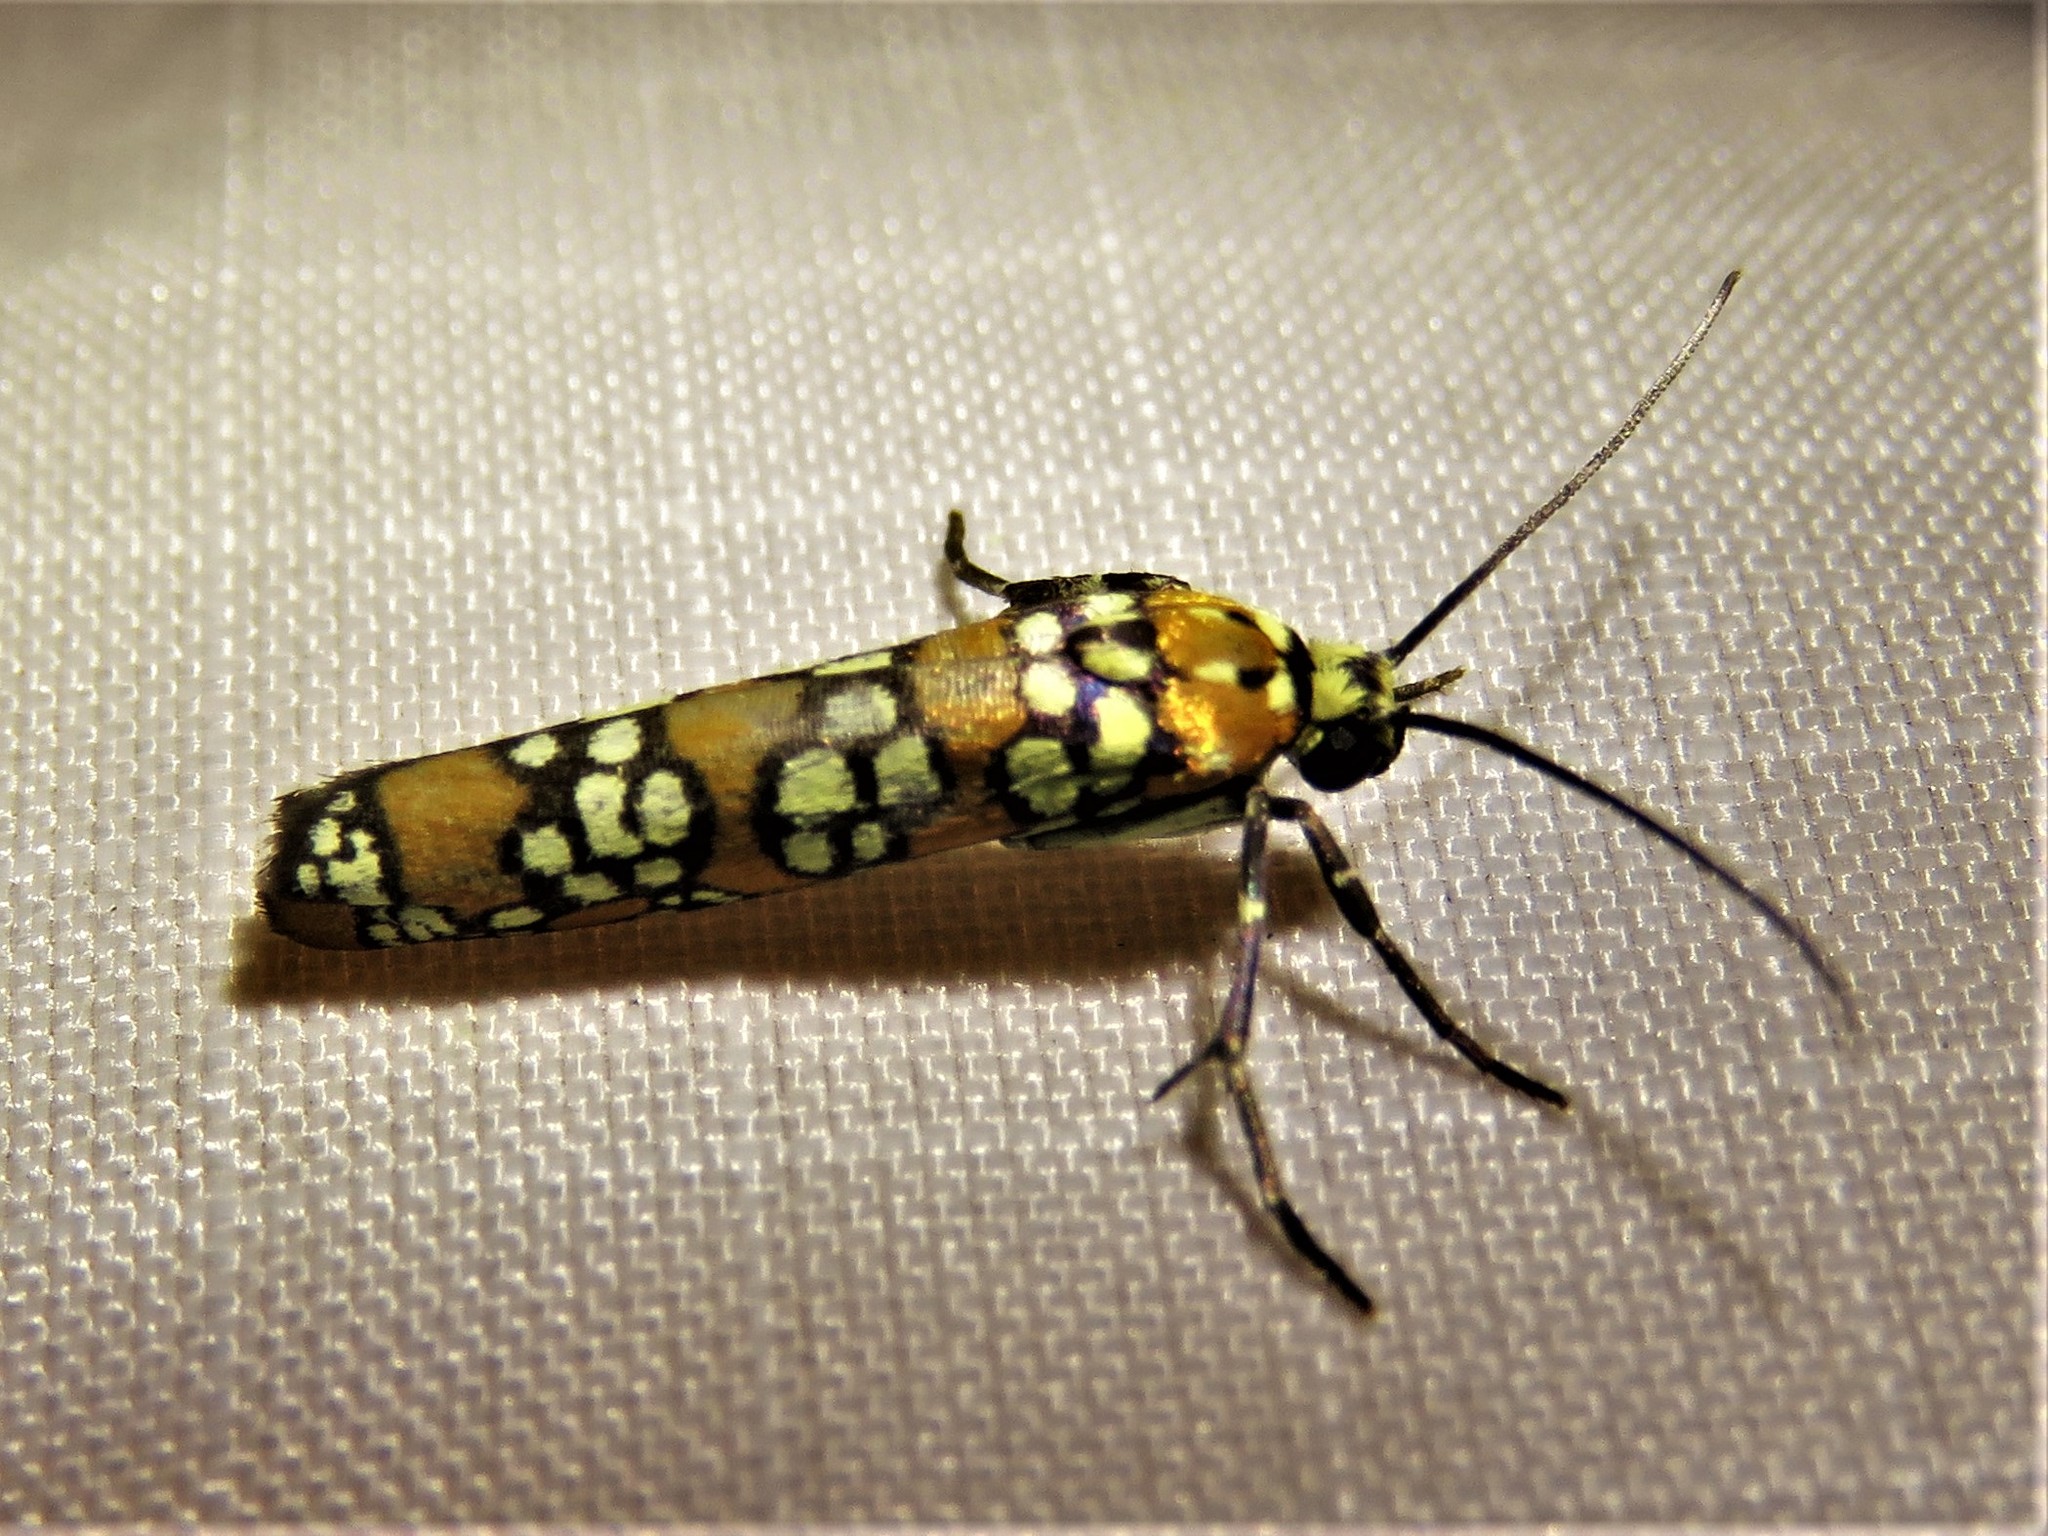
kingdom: Animalia
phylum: Arthropoda
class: Insecta
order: Lepidoptera
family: Attevidae
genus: Atteva
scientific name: Atteva punctella
